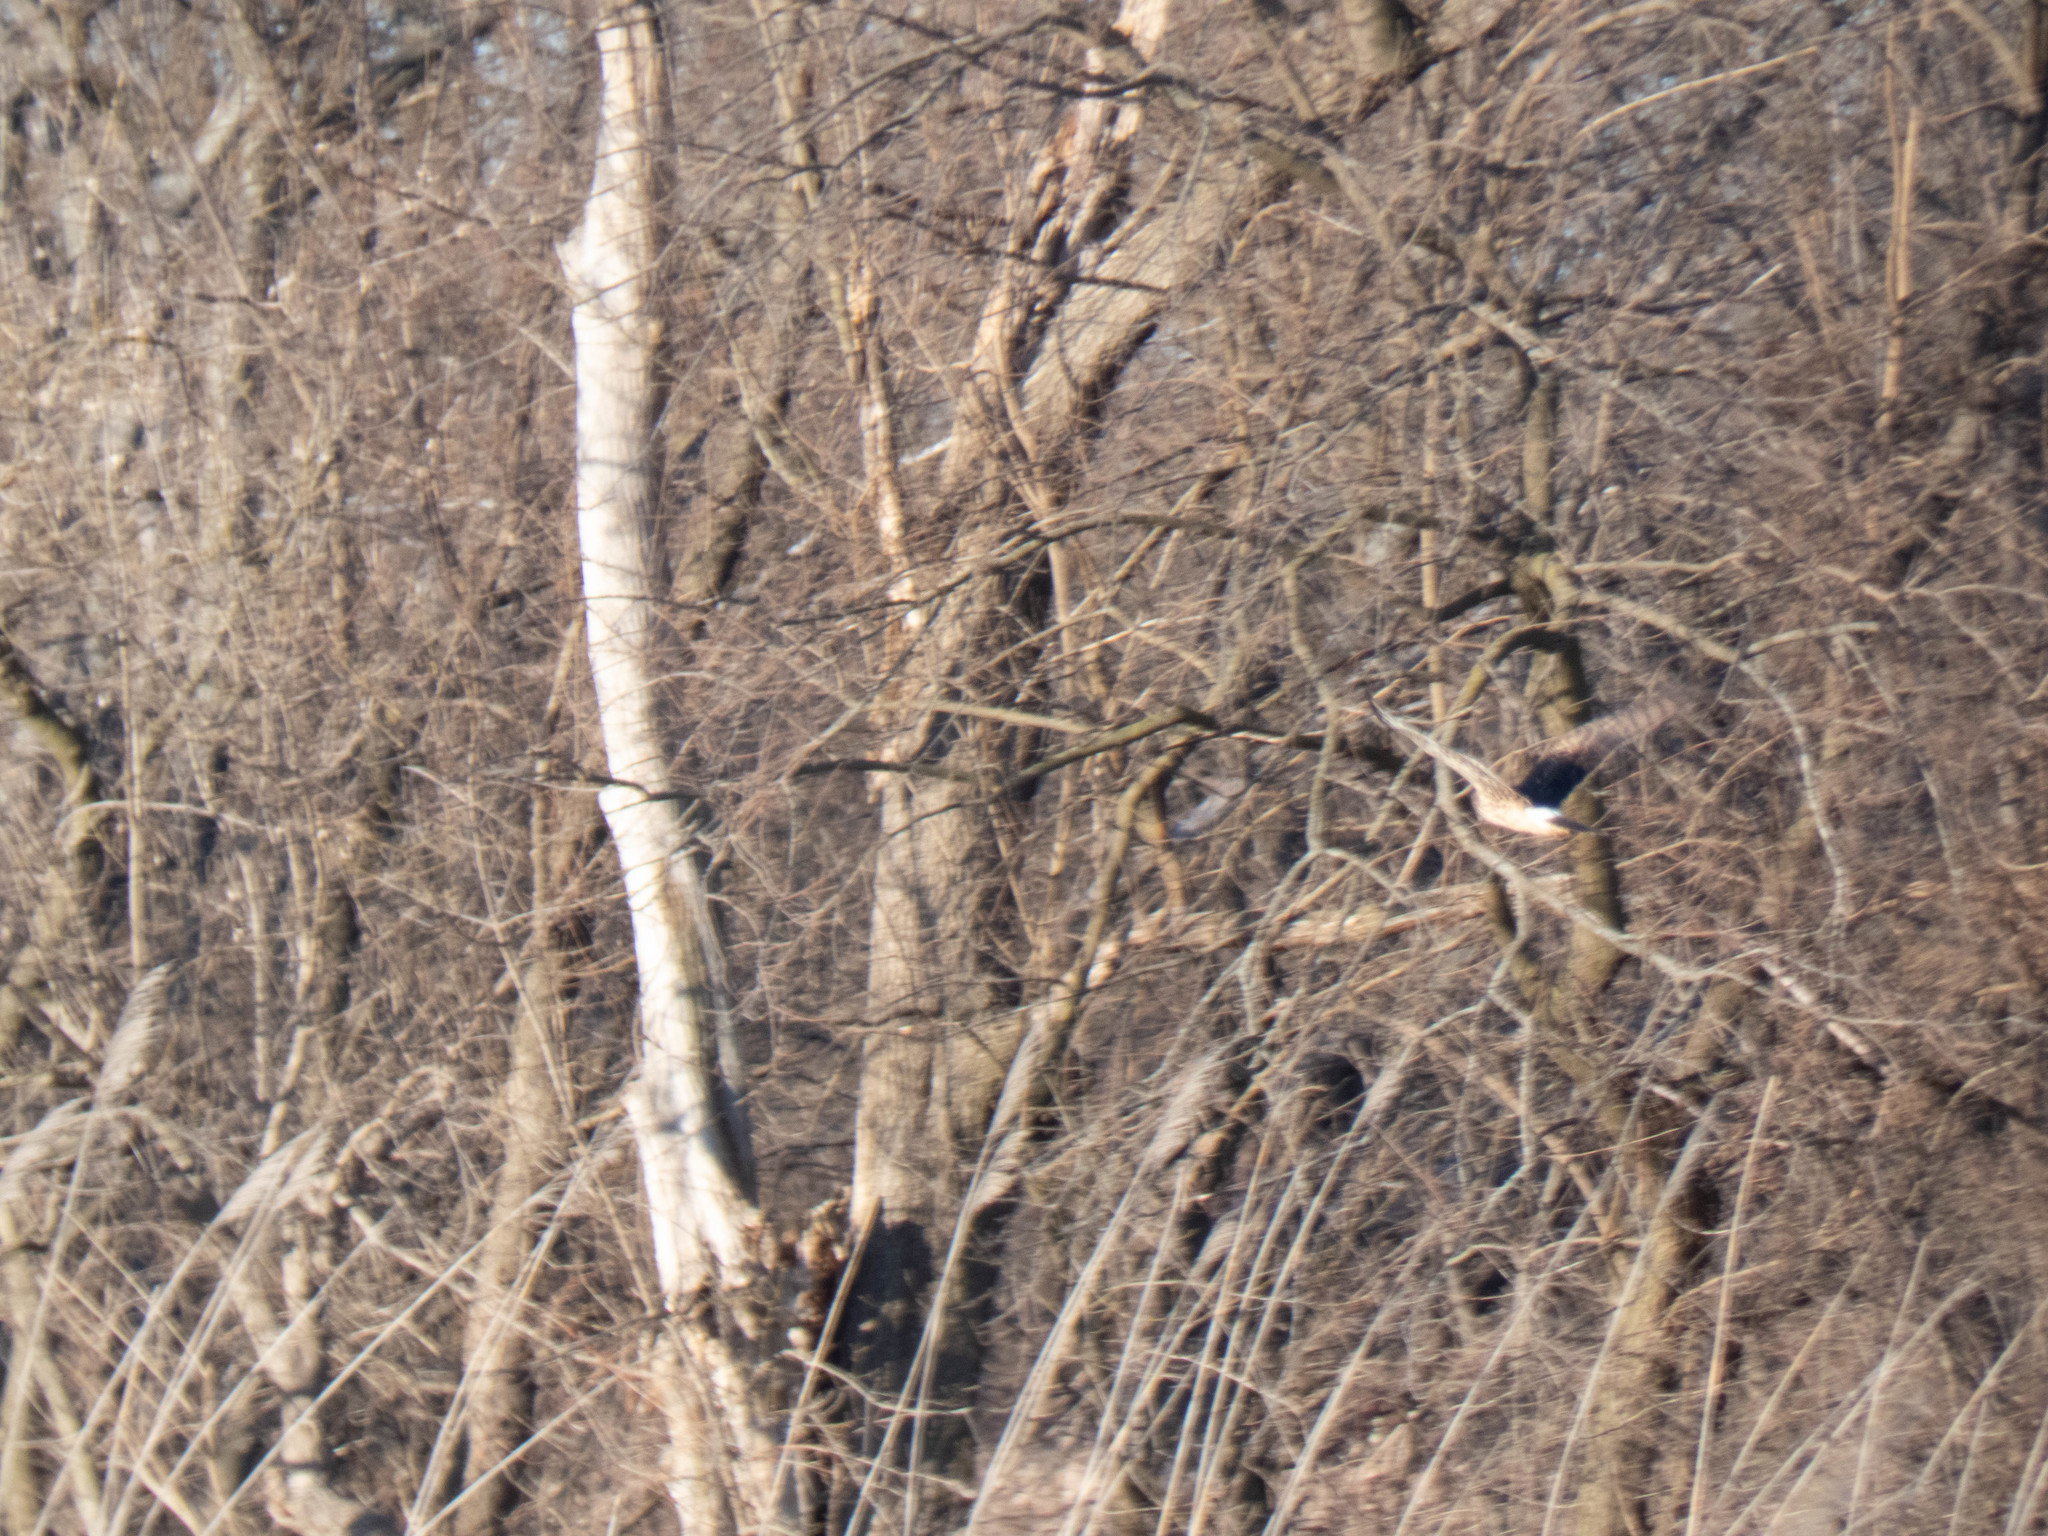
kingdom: Animalia
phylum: Chordata
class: Aves
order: Accipitriformes
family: Accipitridae
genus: Circus
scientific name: Circus cyaneus
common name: Hen harrier
